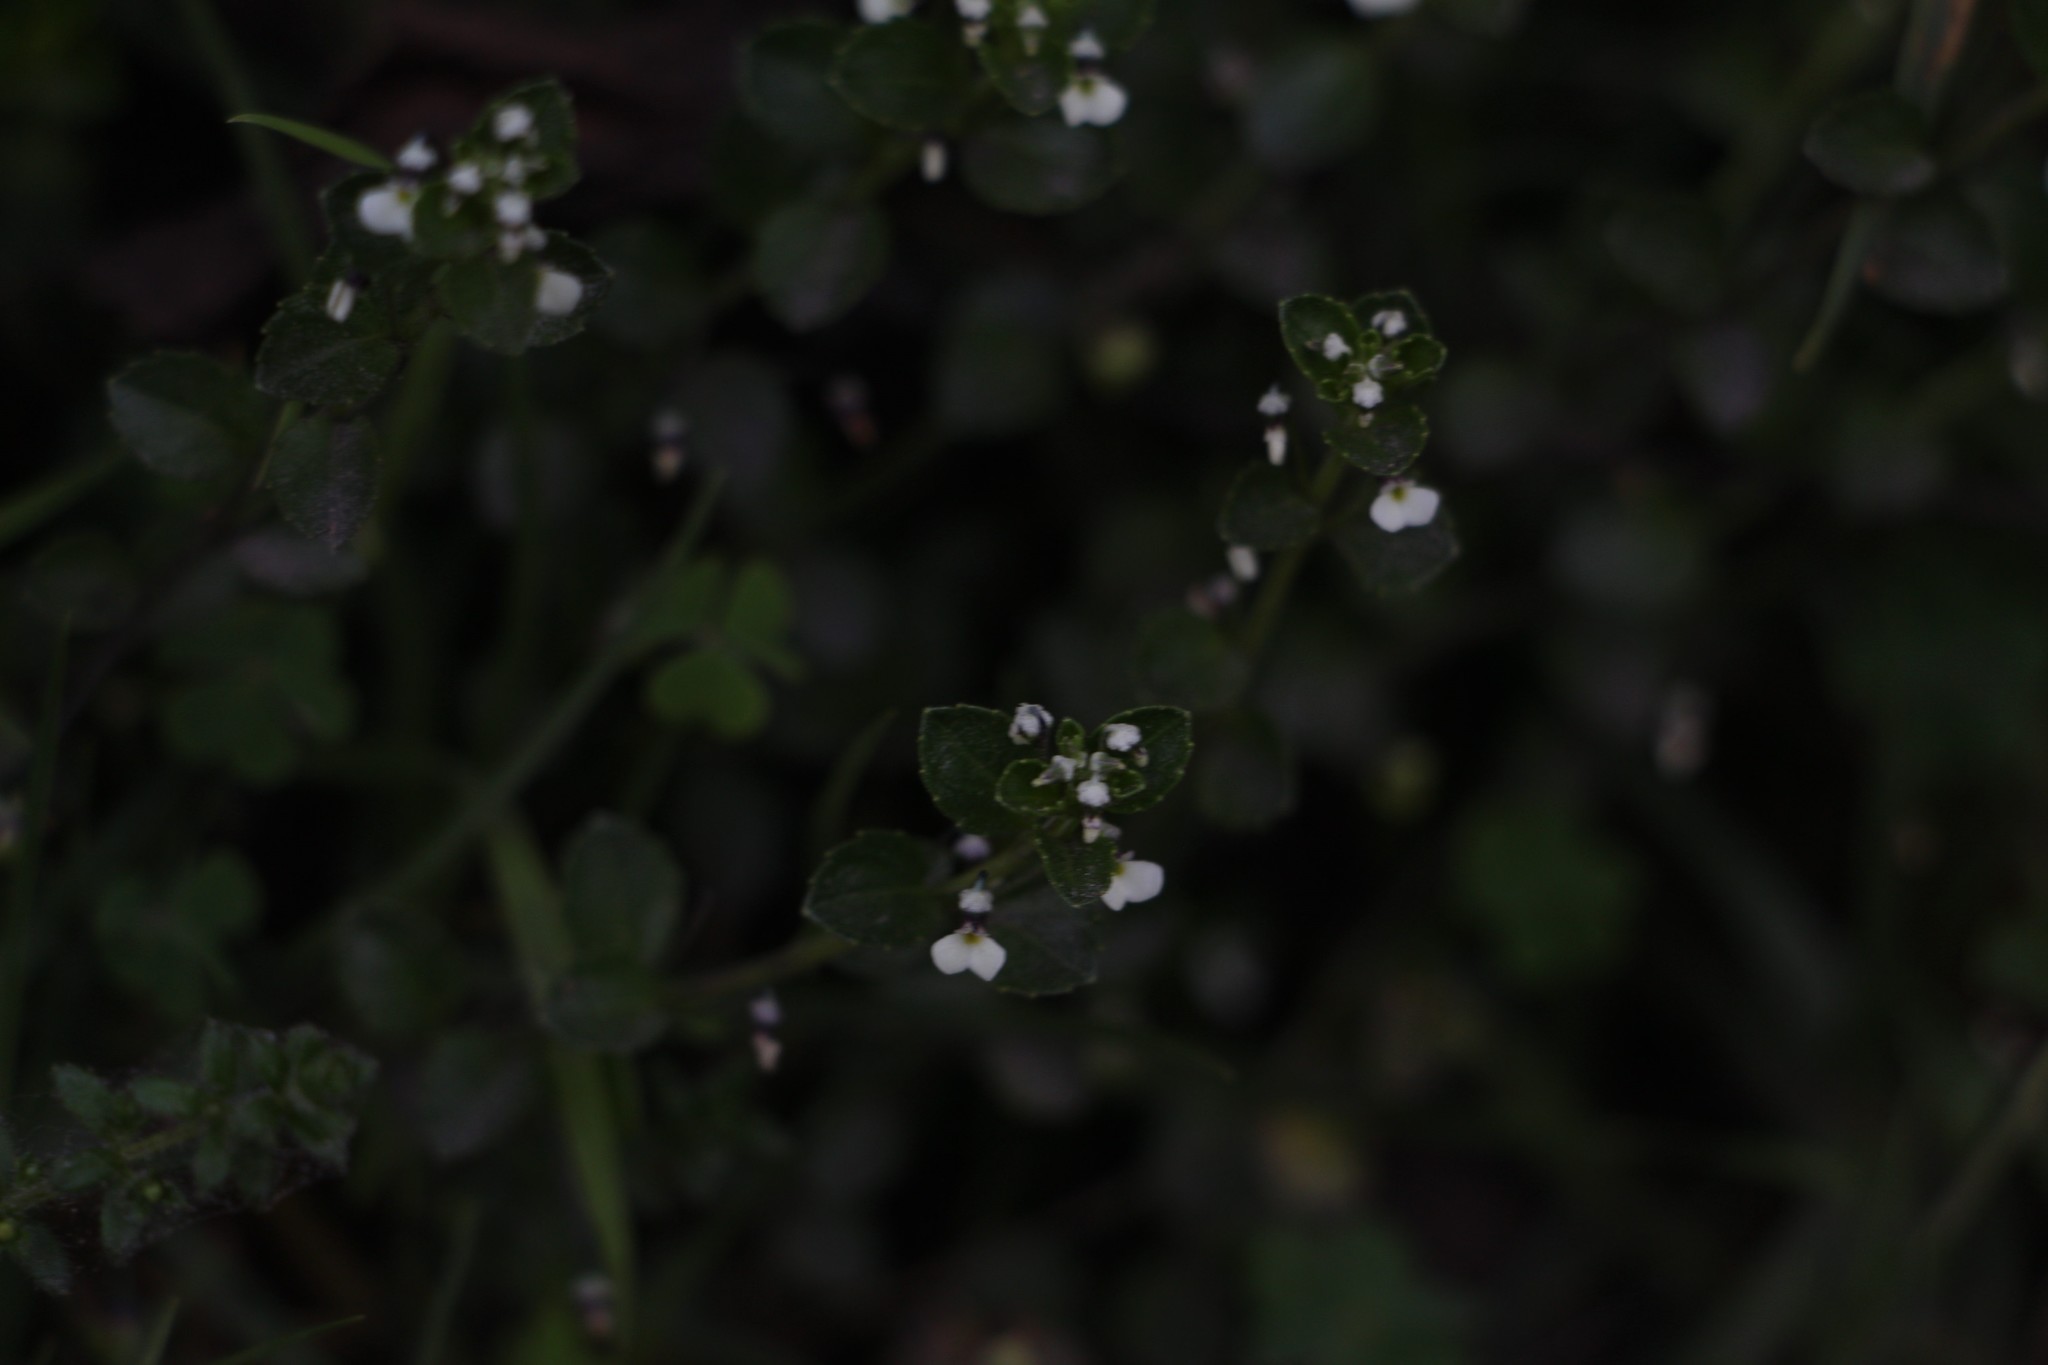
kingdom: Plantae
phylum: Tracheophyta
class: Magnoliopsida
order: Malpighiales
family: Violaceae
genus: Pombalia
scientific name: Pombalia parviflora
